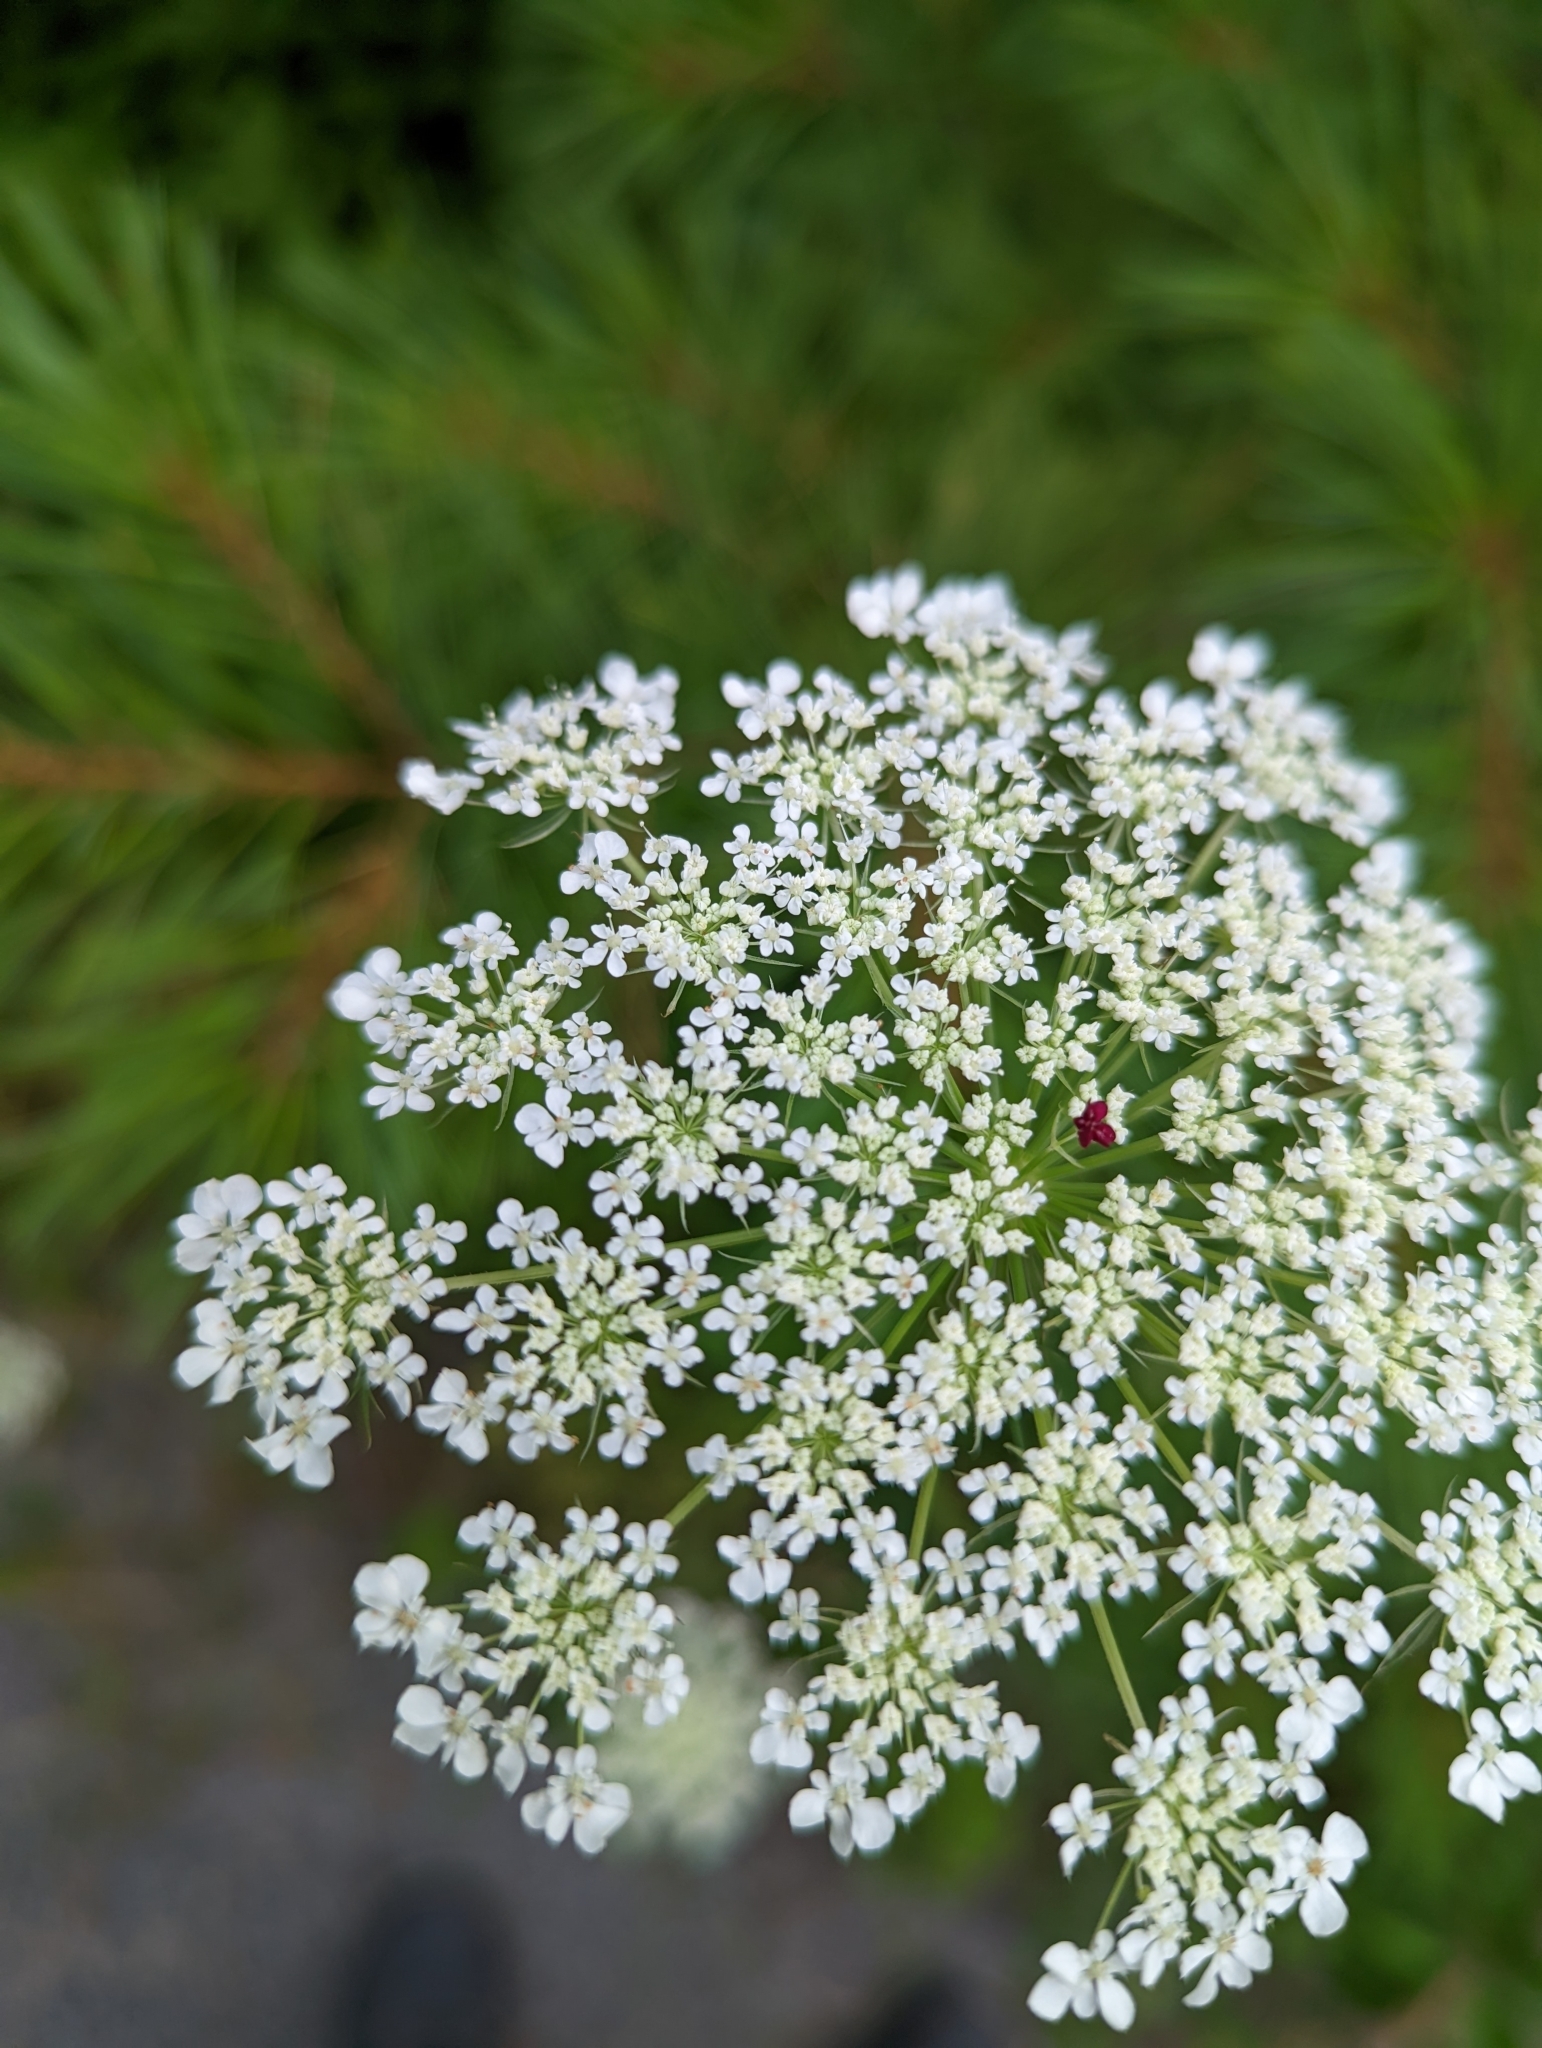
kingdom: Plantae
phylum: Tracheophyta
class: Magnoliopsida
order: Apiales
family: Apiaceae
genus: Daucus
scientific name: Daucus carota
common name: Wild carrot
